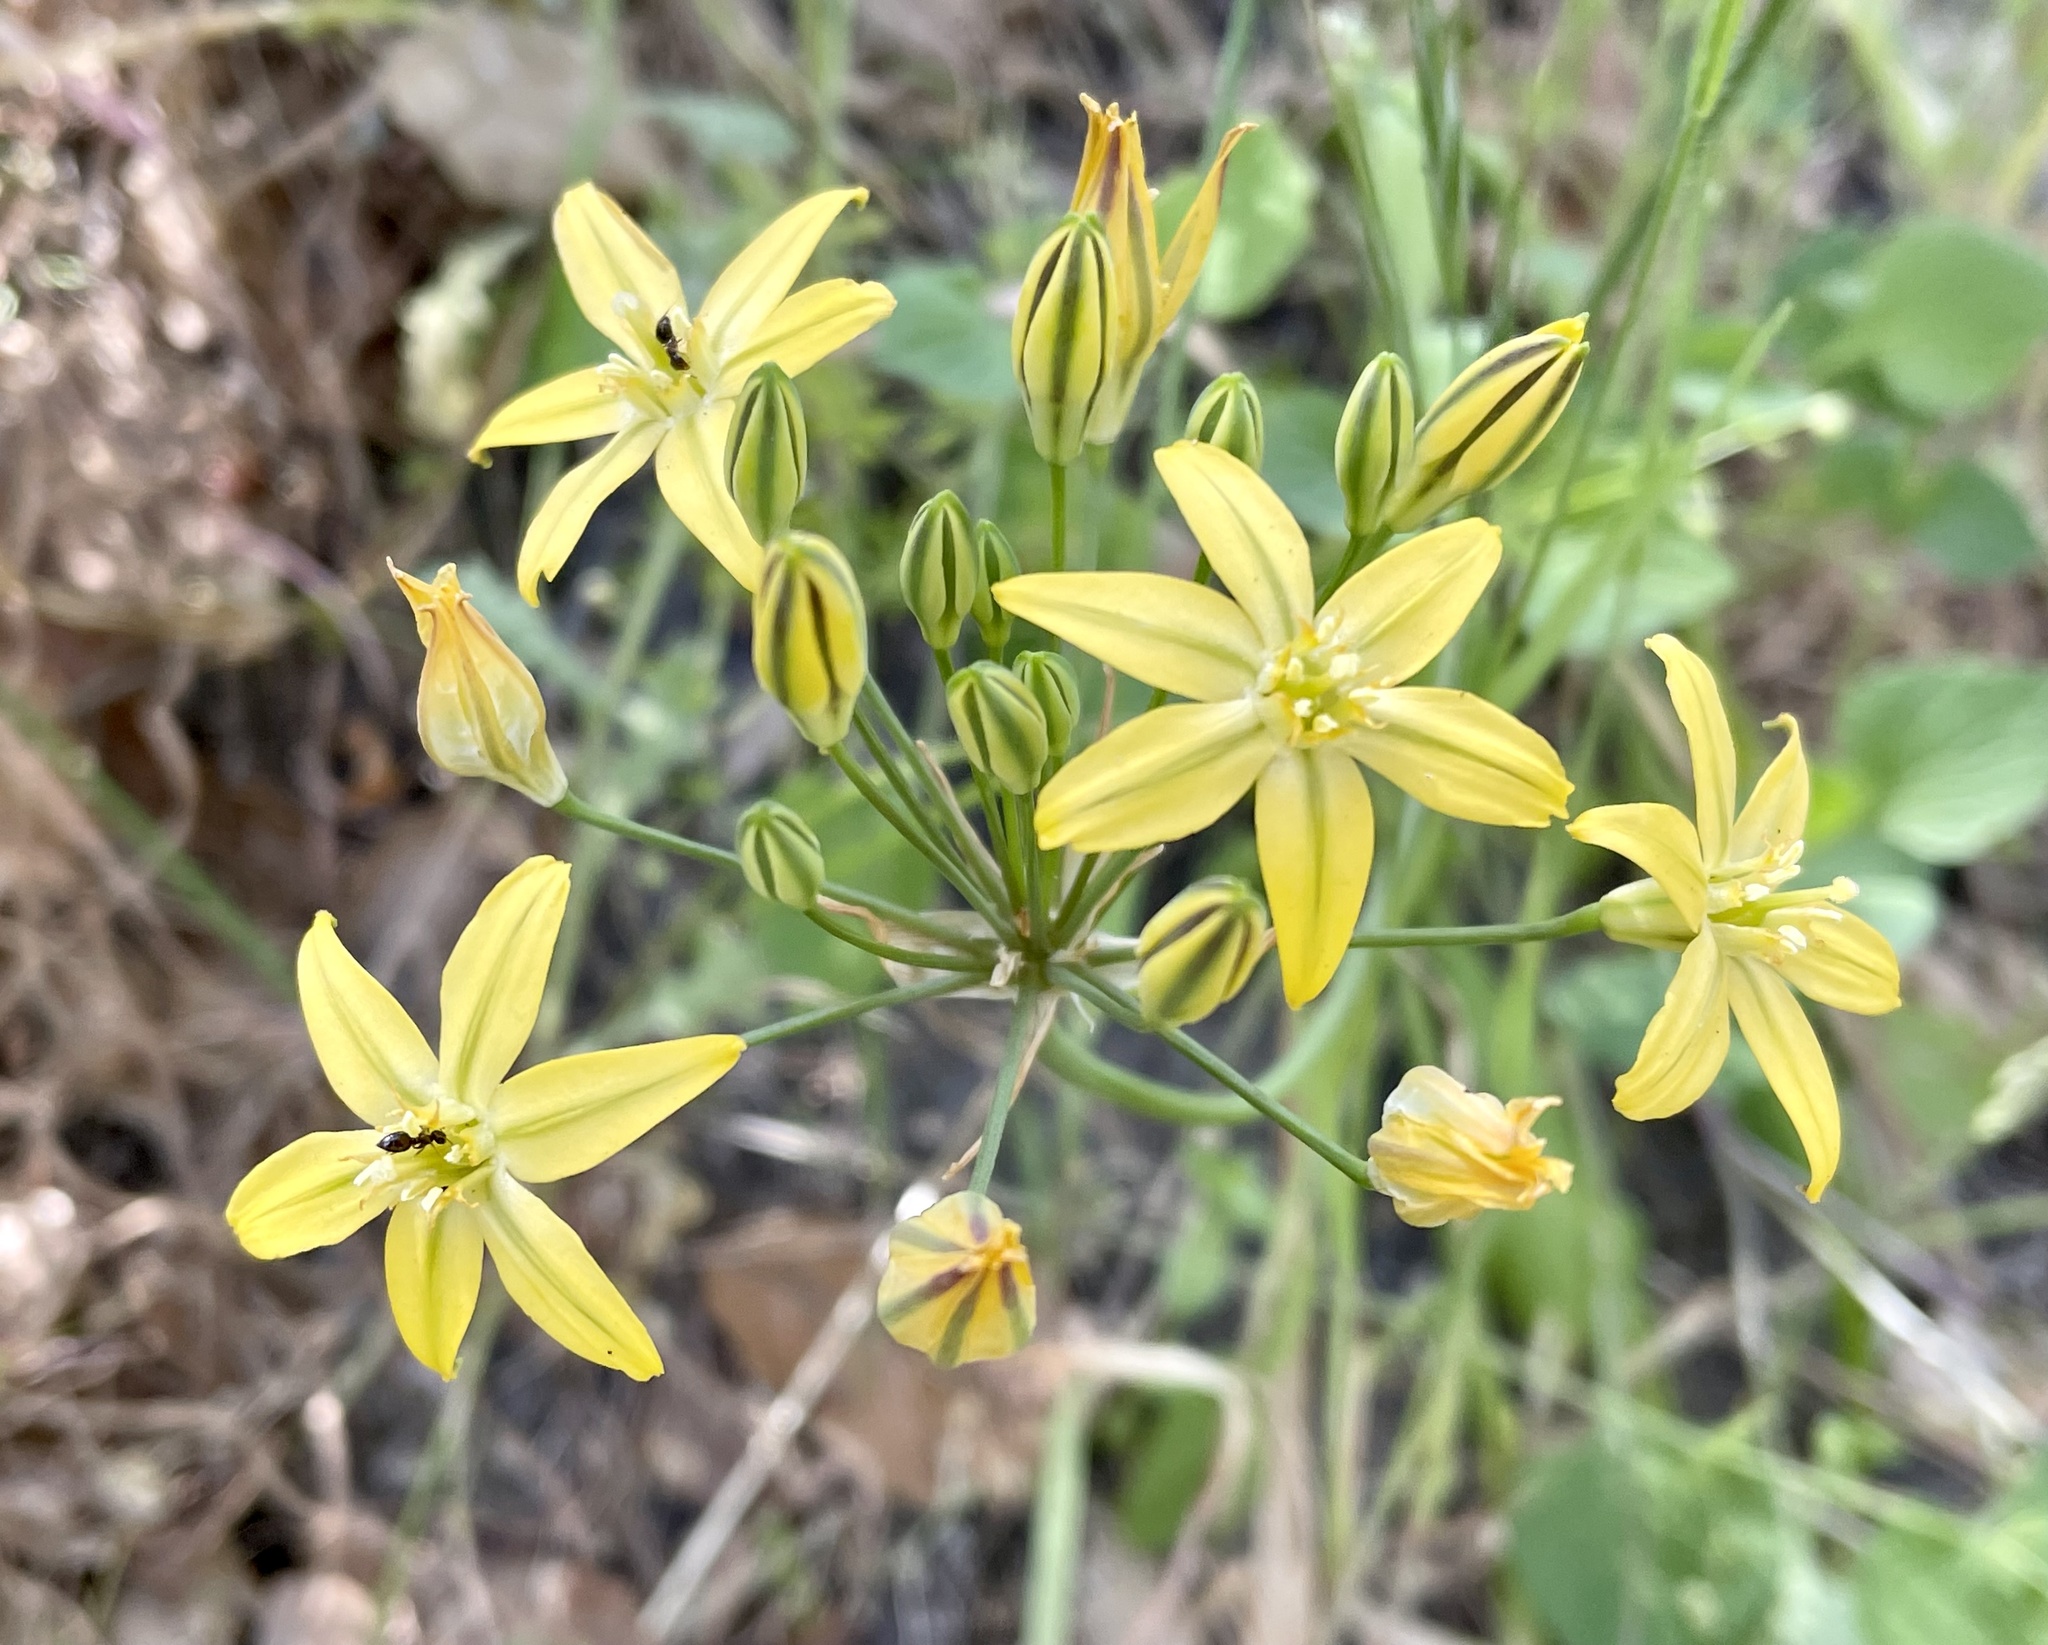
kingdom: Plantae
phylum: Tracheophyta
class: Liliopsida
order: Asparagales
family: Asparagaceae
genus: Triteleia
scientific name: Triteleia ixioides
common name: Yellow-brodiaea
